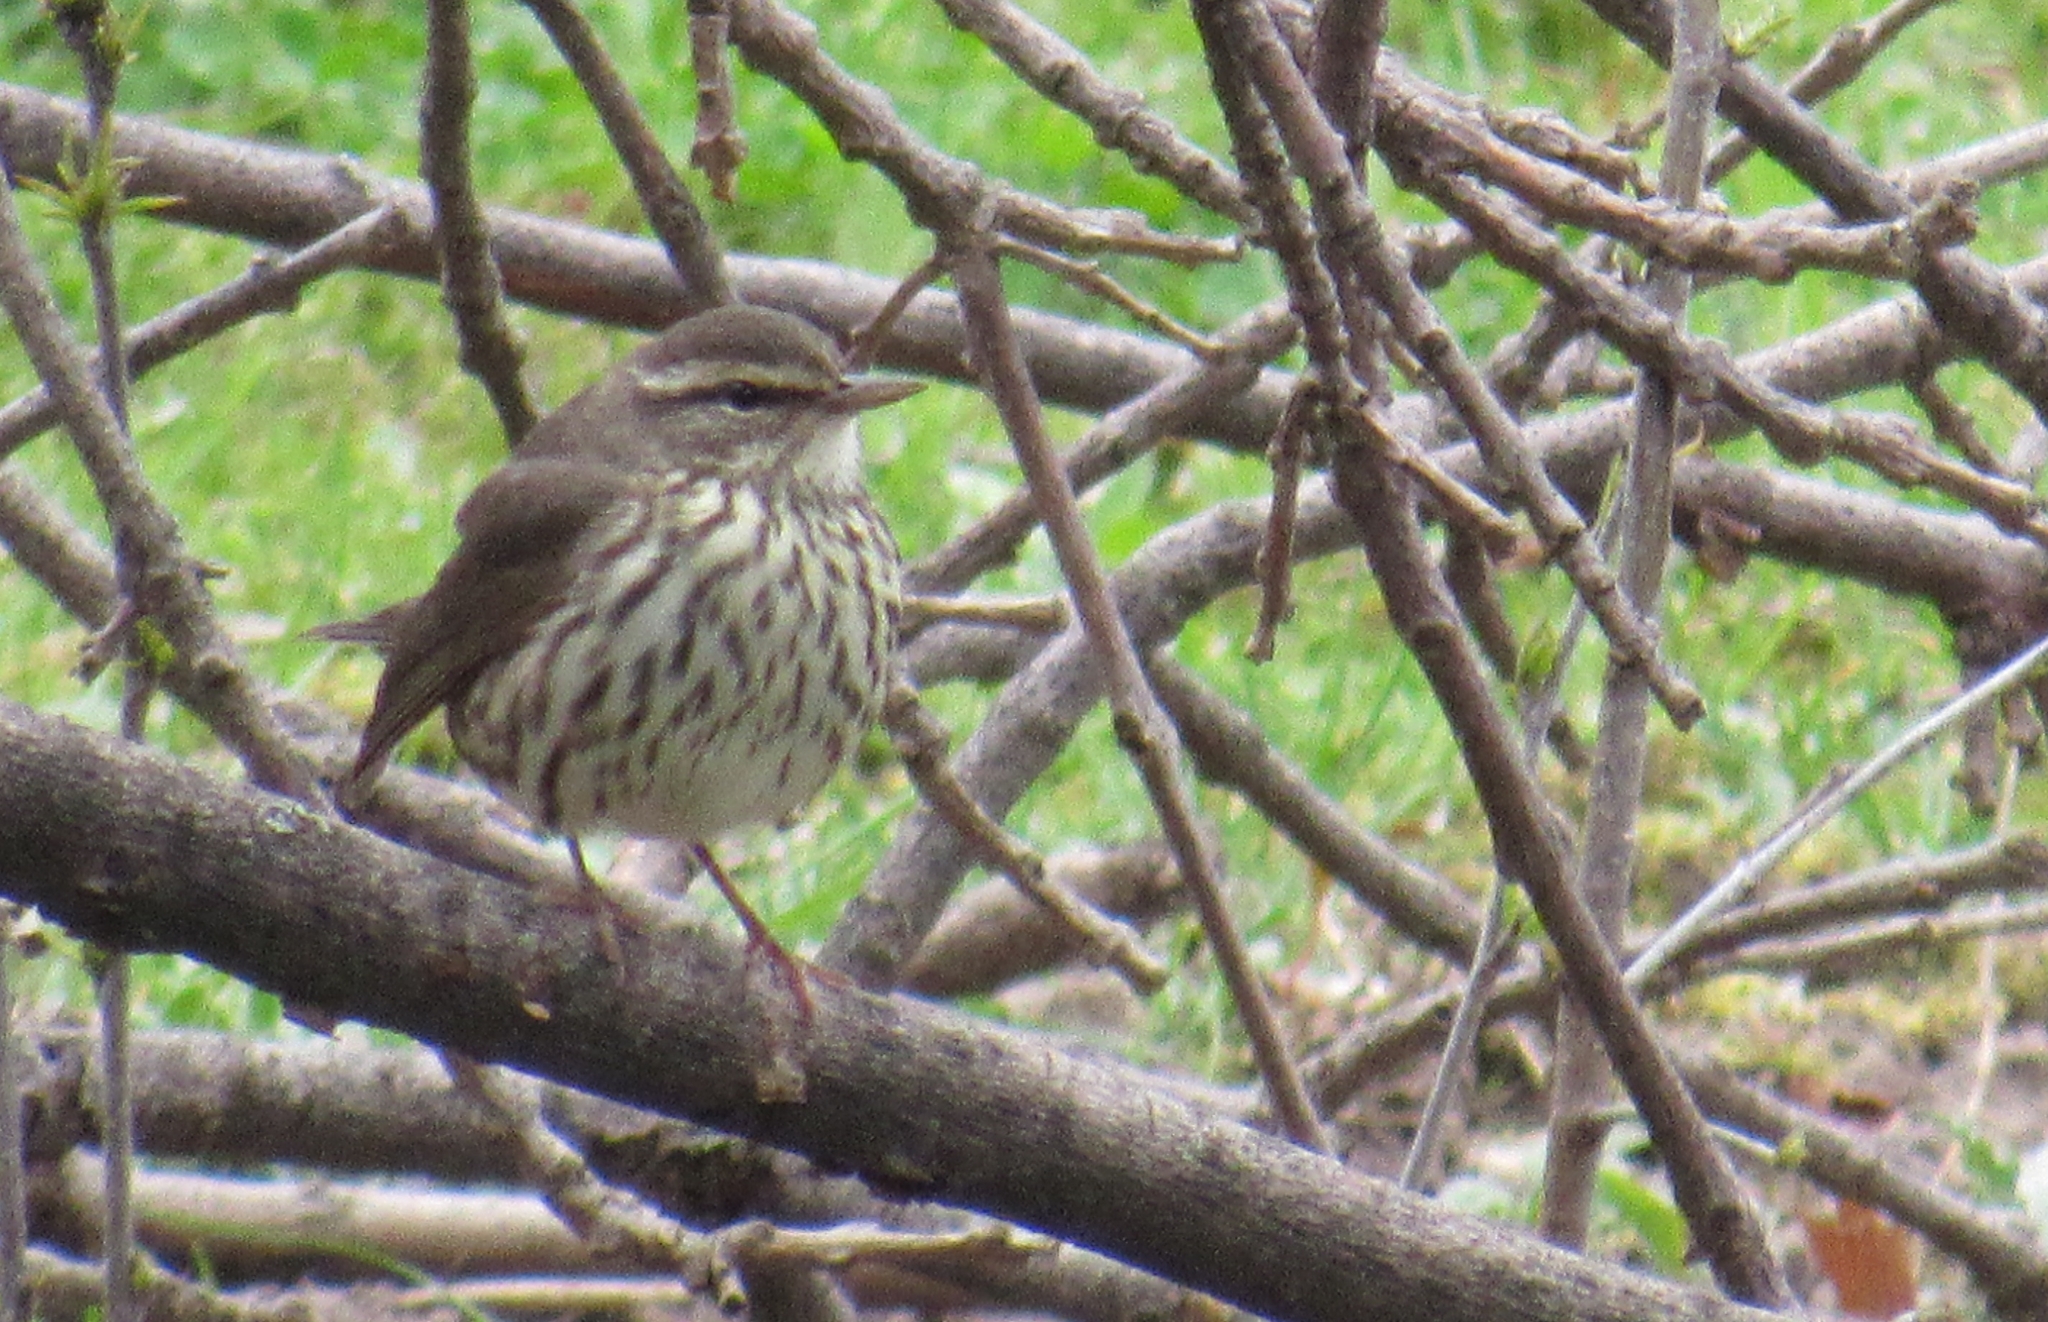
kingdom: Animalia
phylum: Chordata
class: Aves
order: Passeriformes
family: Parulidae
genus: Parkesia
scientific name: Parkesia noveboracensis
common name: Northern waterthrush
